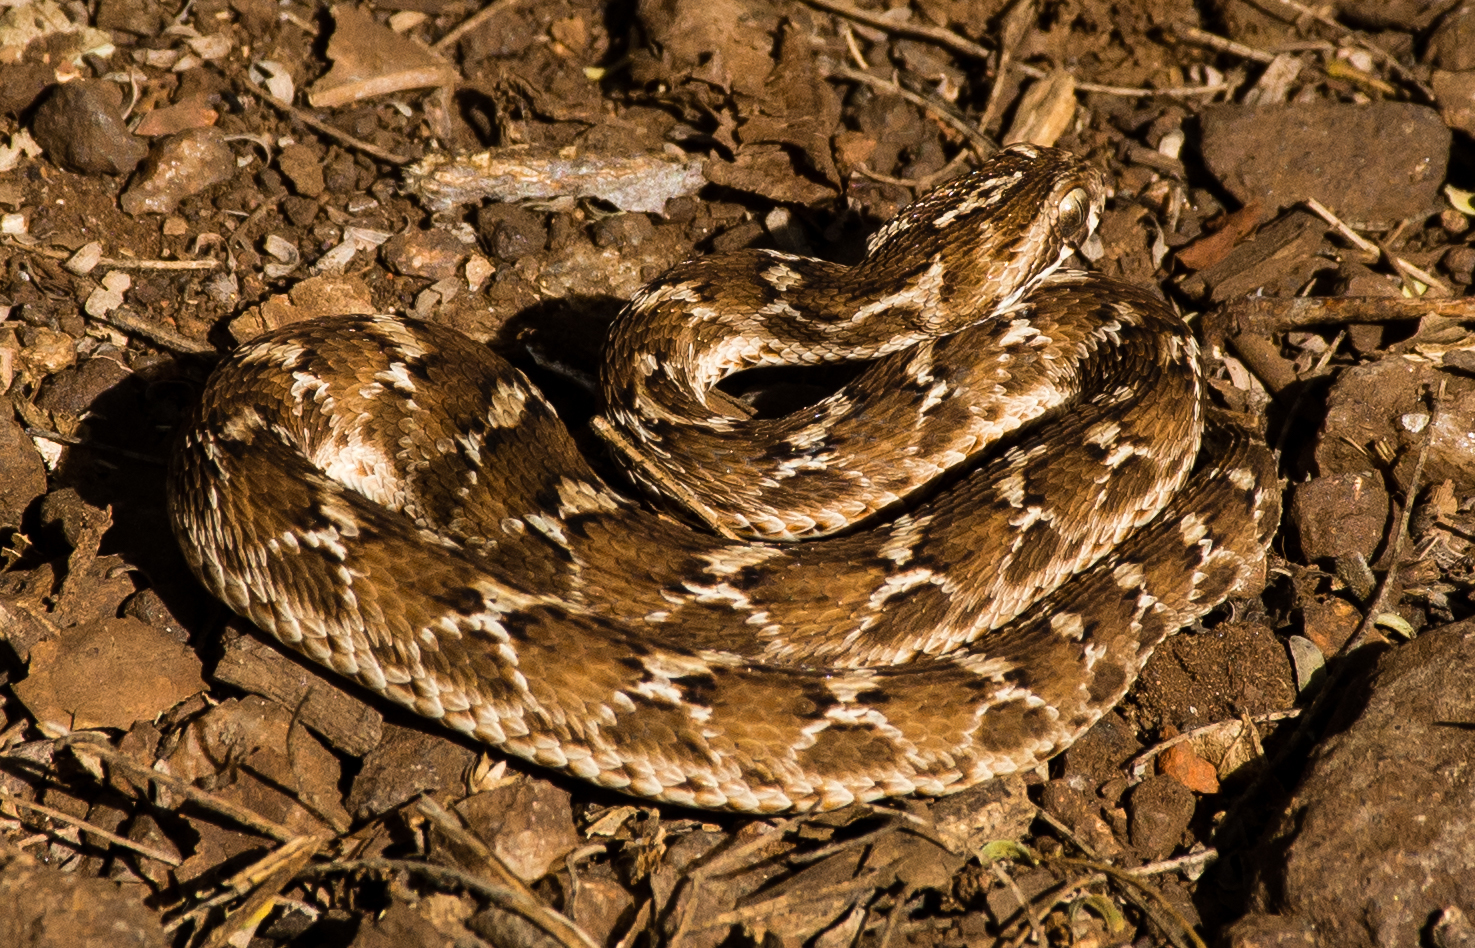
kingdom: Animalia
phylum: Chordata
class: Squamata
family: Viperidae
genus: Echis
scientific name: Echis carinatus
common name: Saw-scaled viper
